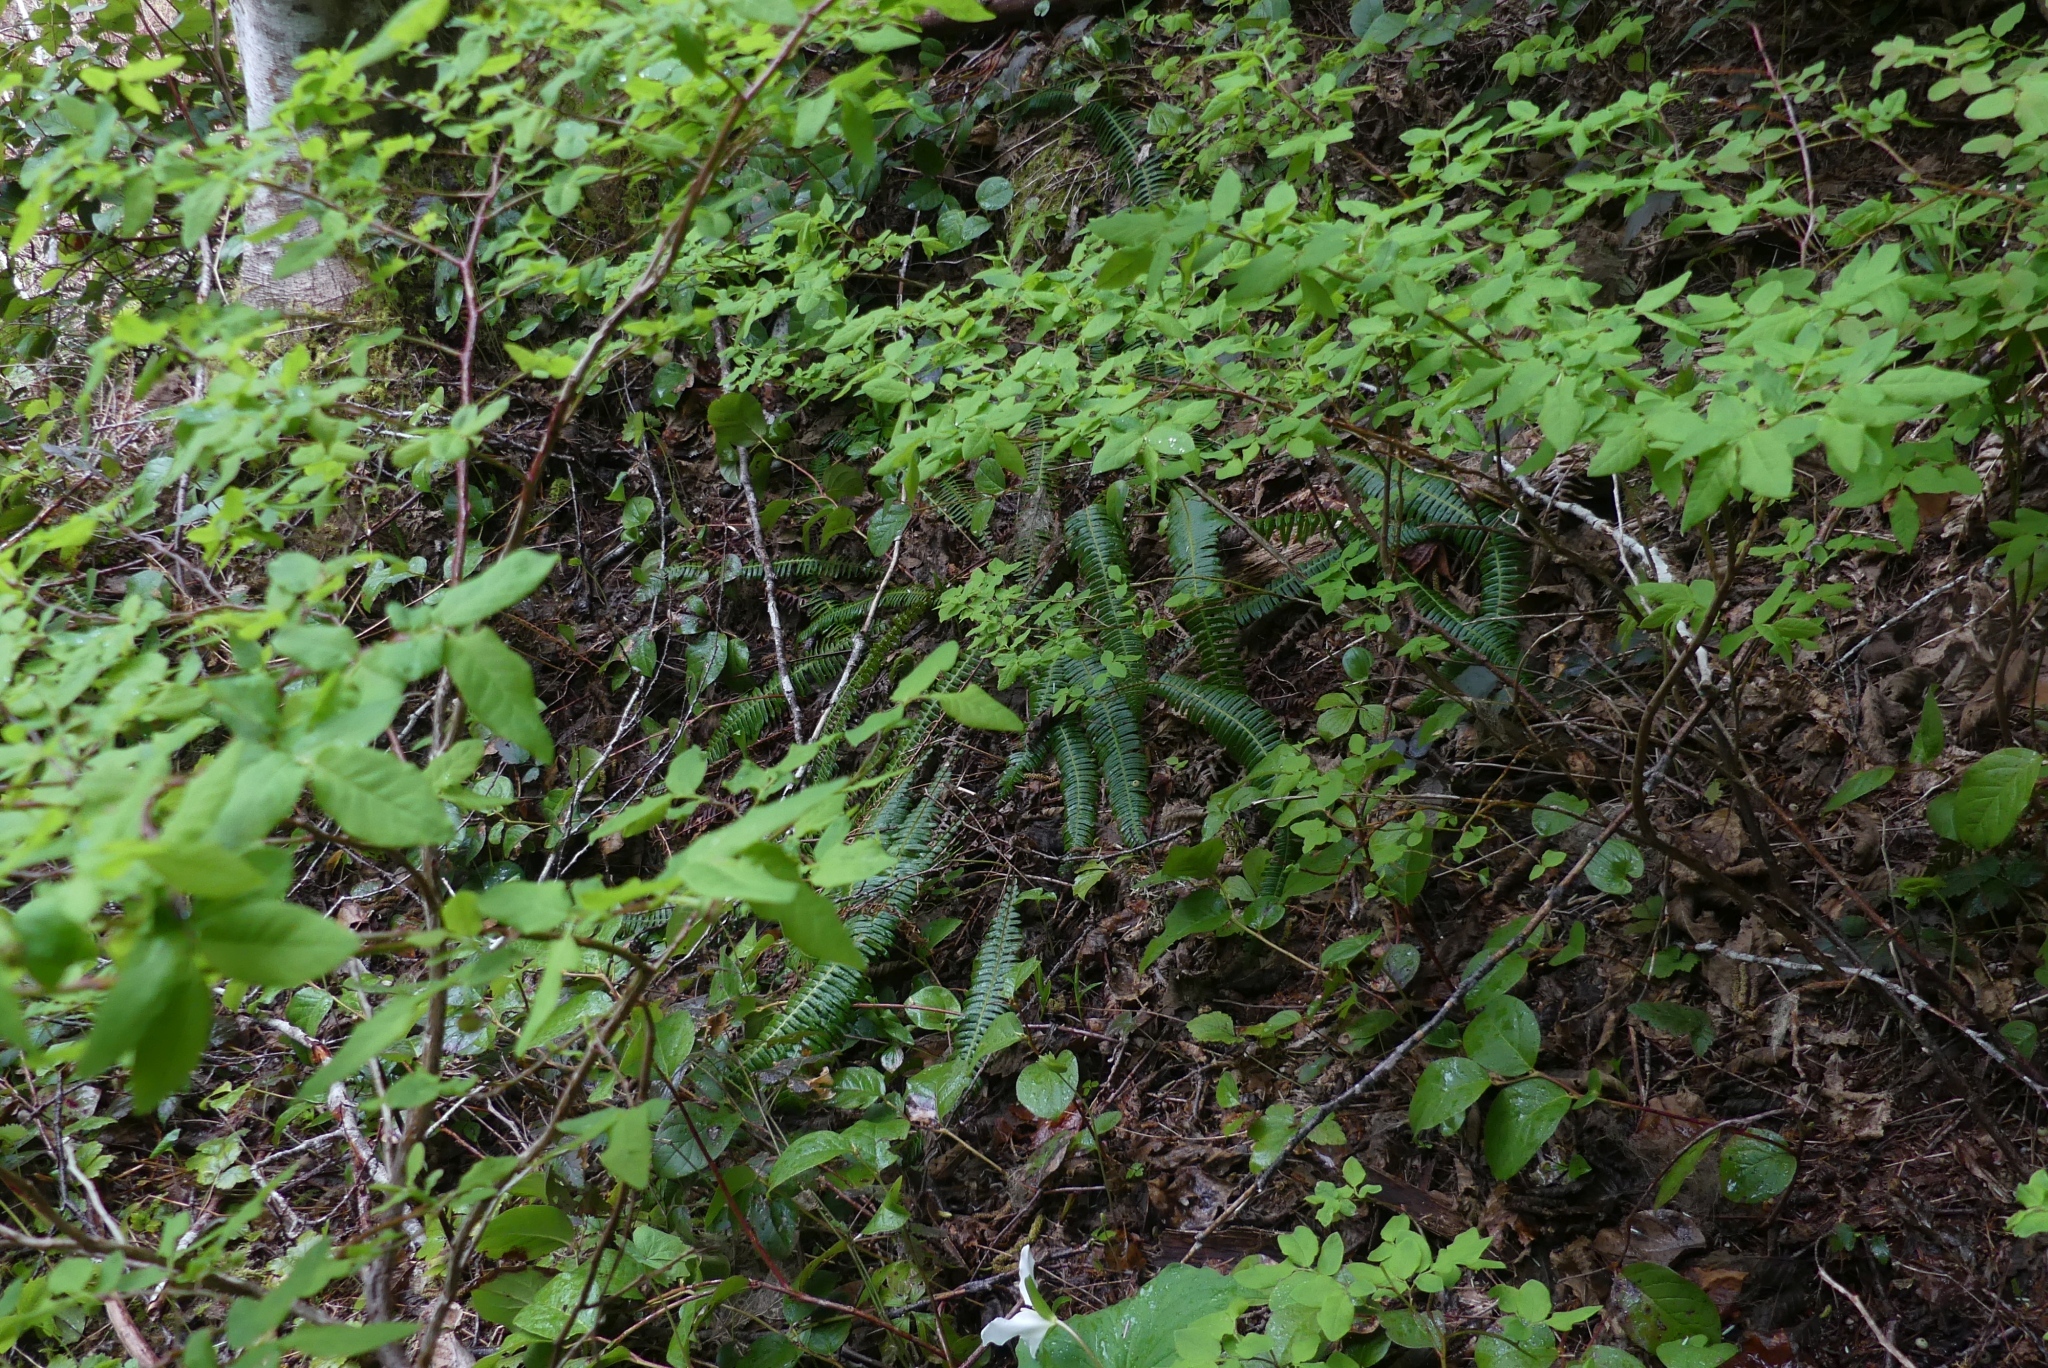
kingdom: Plantae
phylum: Tracheophyta
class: Polypodiopsida
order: Polypodiales
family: Blechnaceae
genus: Struthiopteris
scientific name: Struthiopteris spicant
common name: Deer fern
